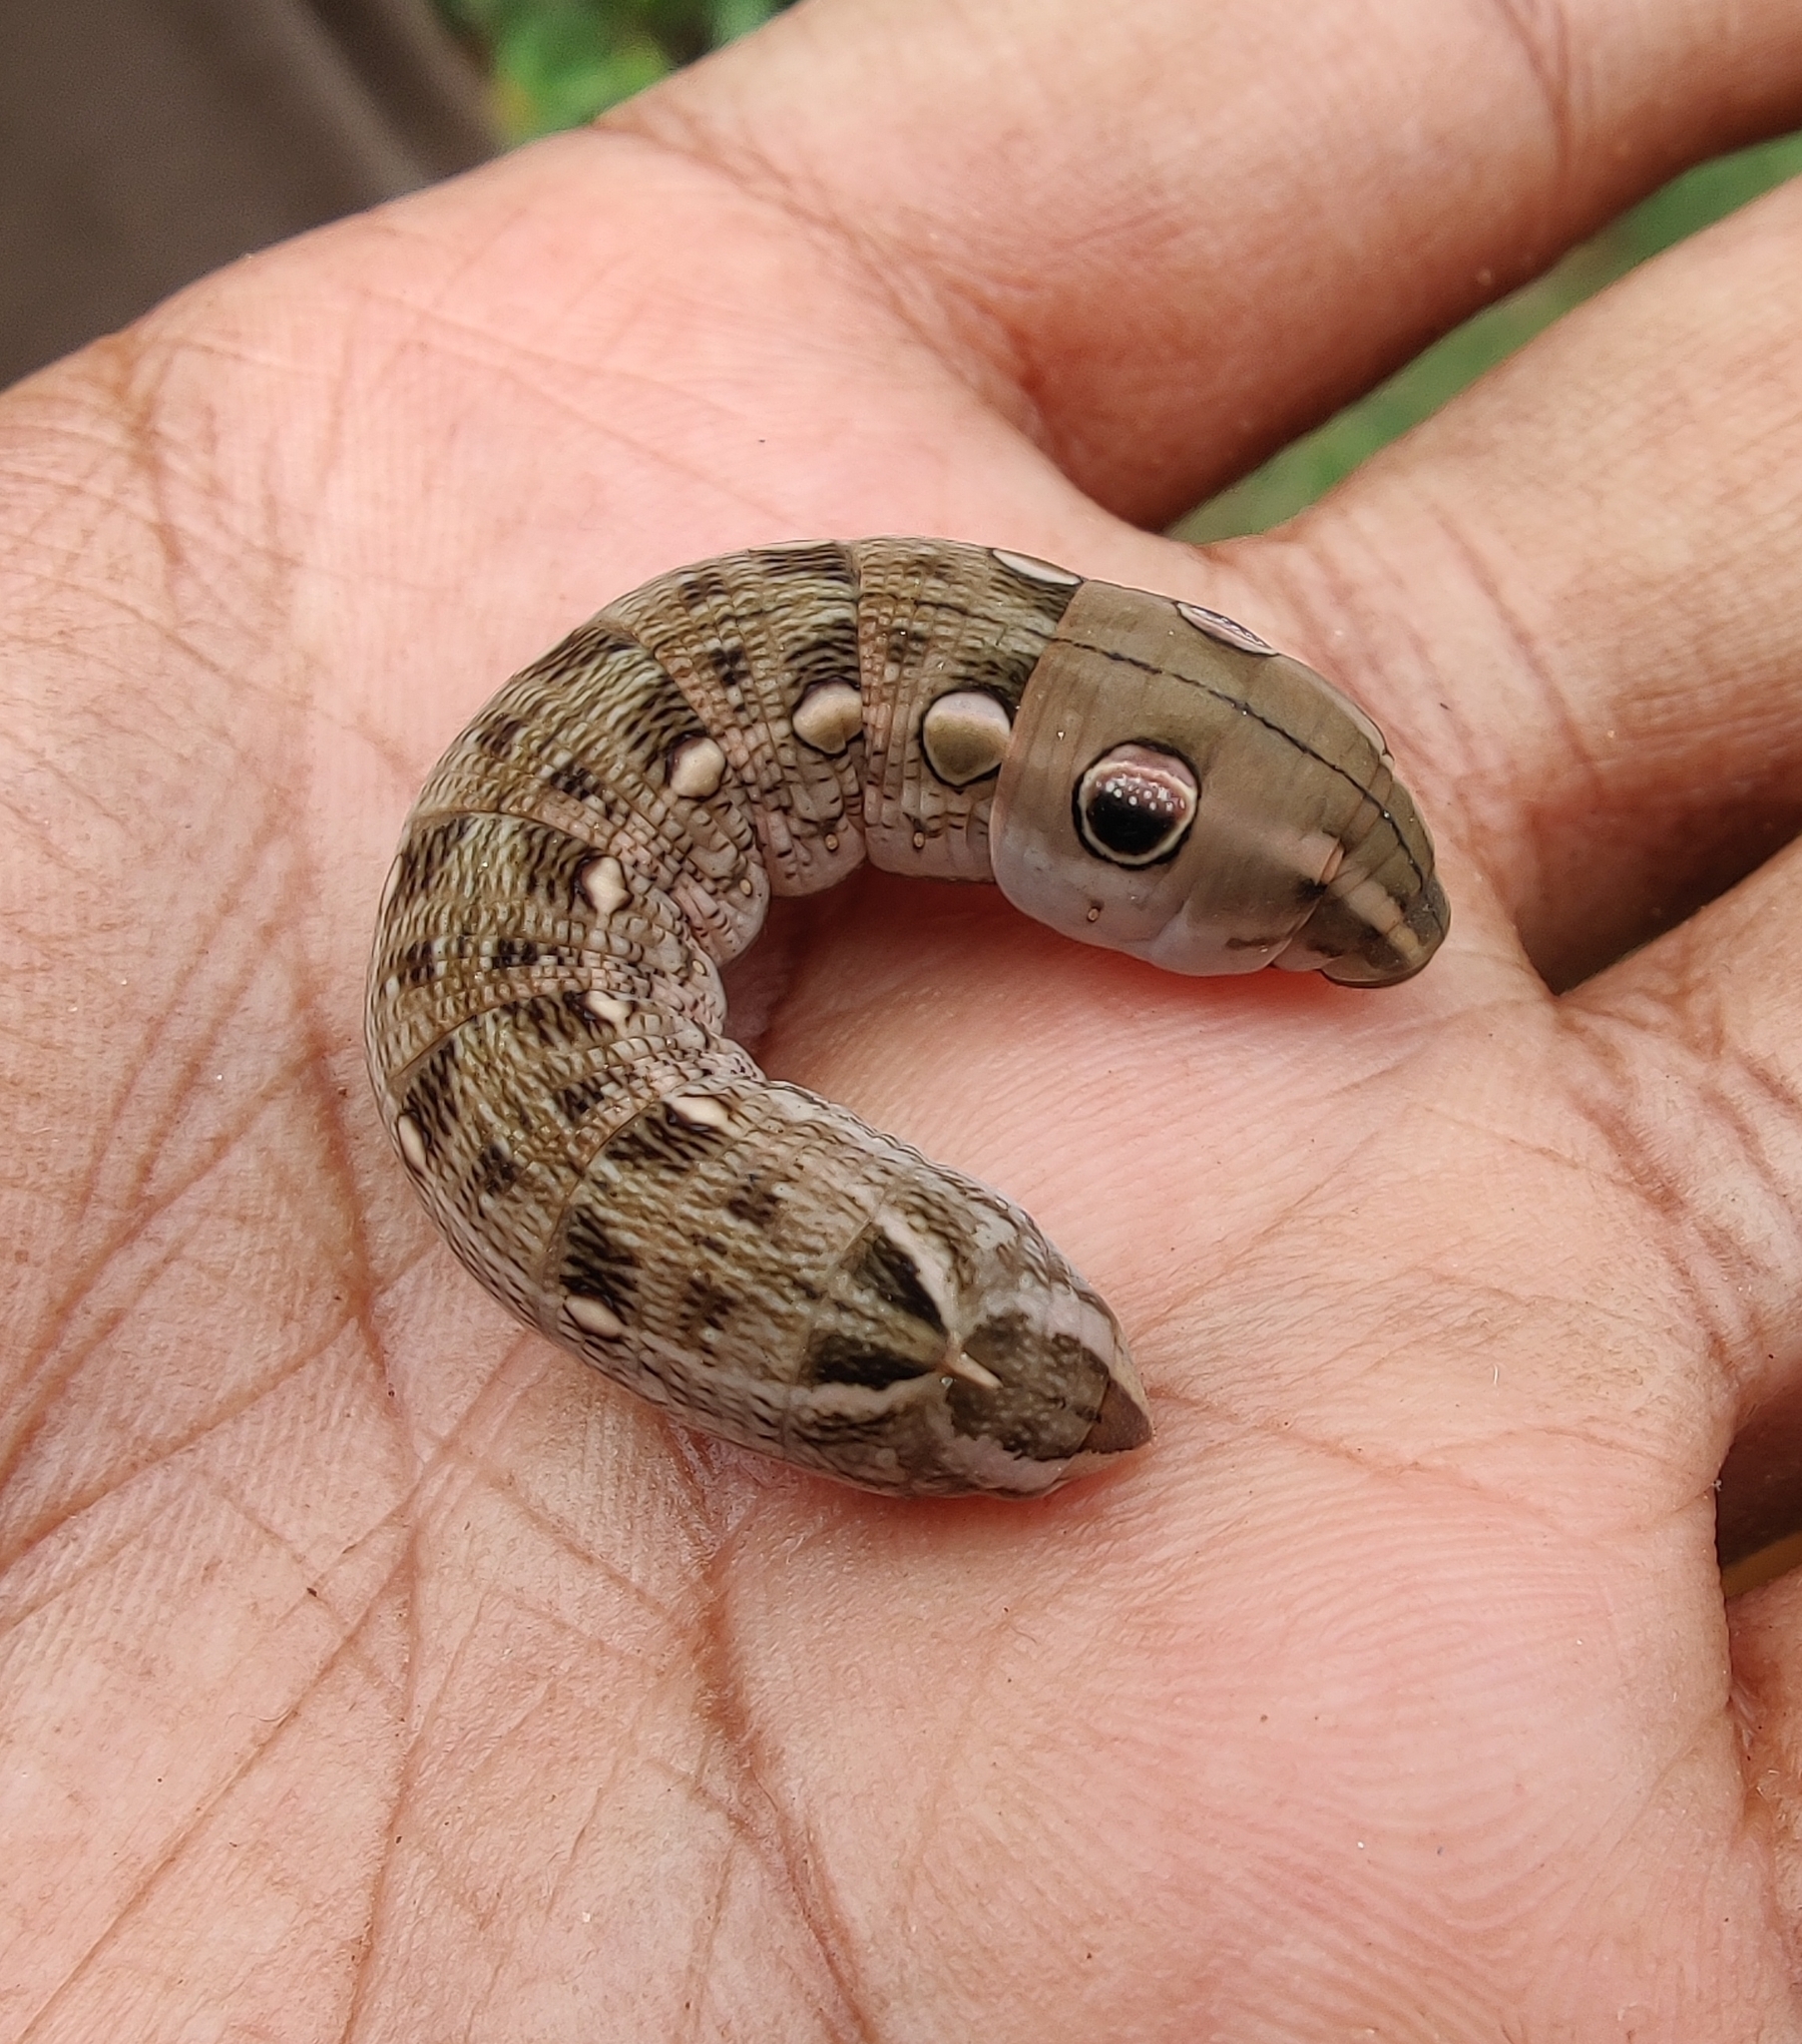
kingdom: Animalia
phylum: Arthropoda
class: Insecta
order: Lepidoptera
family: Sphingidae
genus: Hippotion
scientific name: Hippotion rosetta
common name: Vine hawk moth
